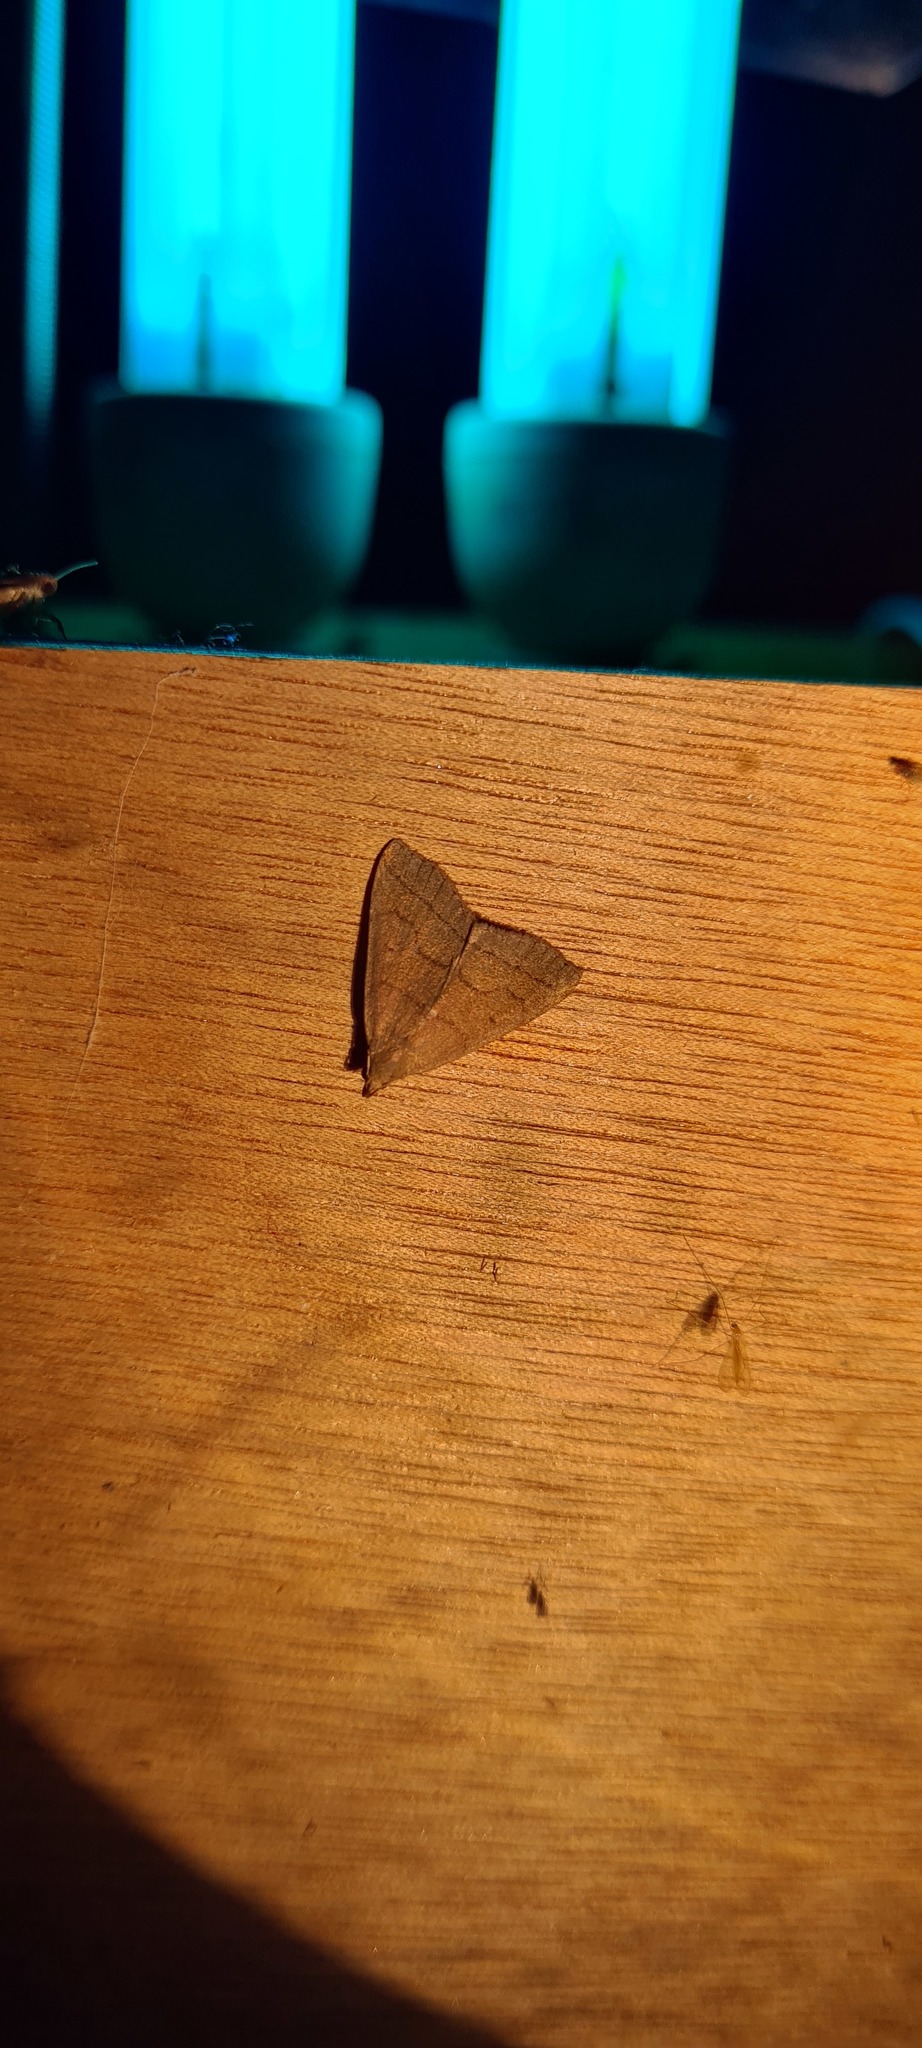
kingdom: Animalia
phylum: Arthropoda
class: Insecta
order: Lepidoptera
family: Erebidae
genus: Herminia
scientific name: Herminia tarsipennalis
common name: Fan-foot
